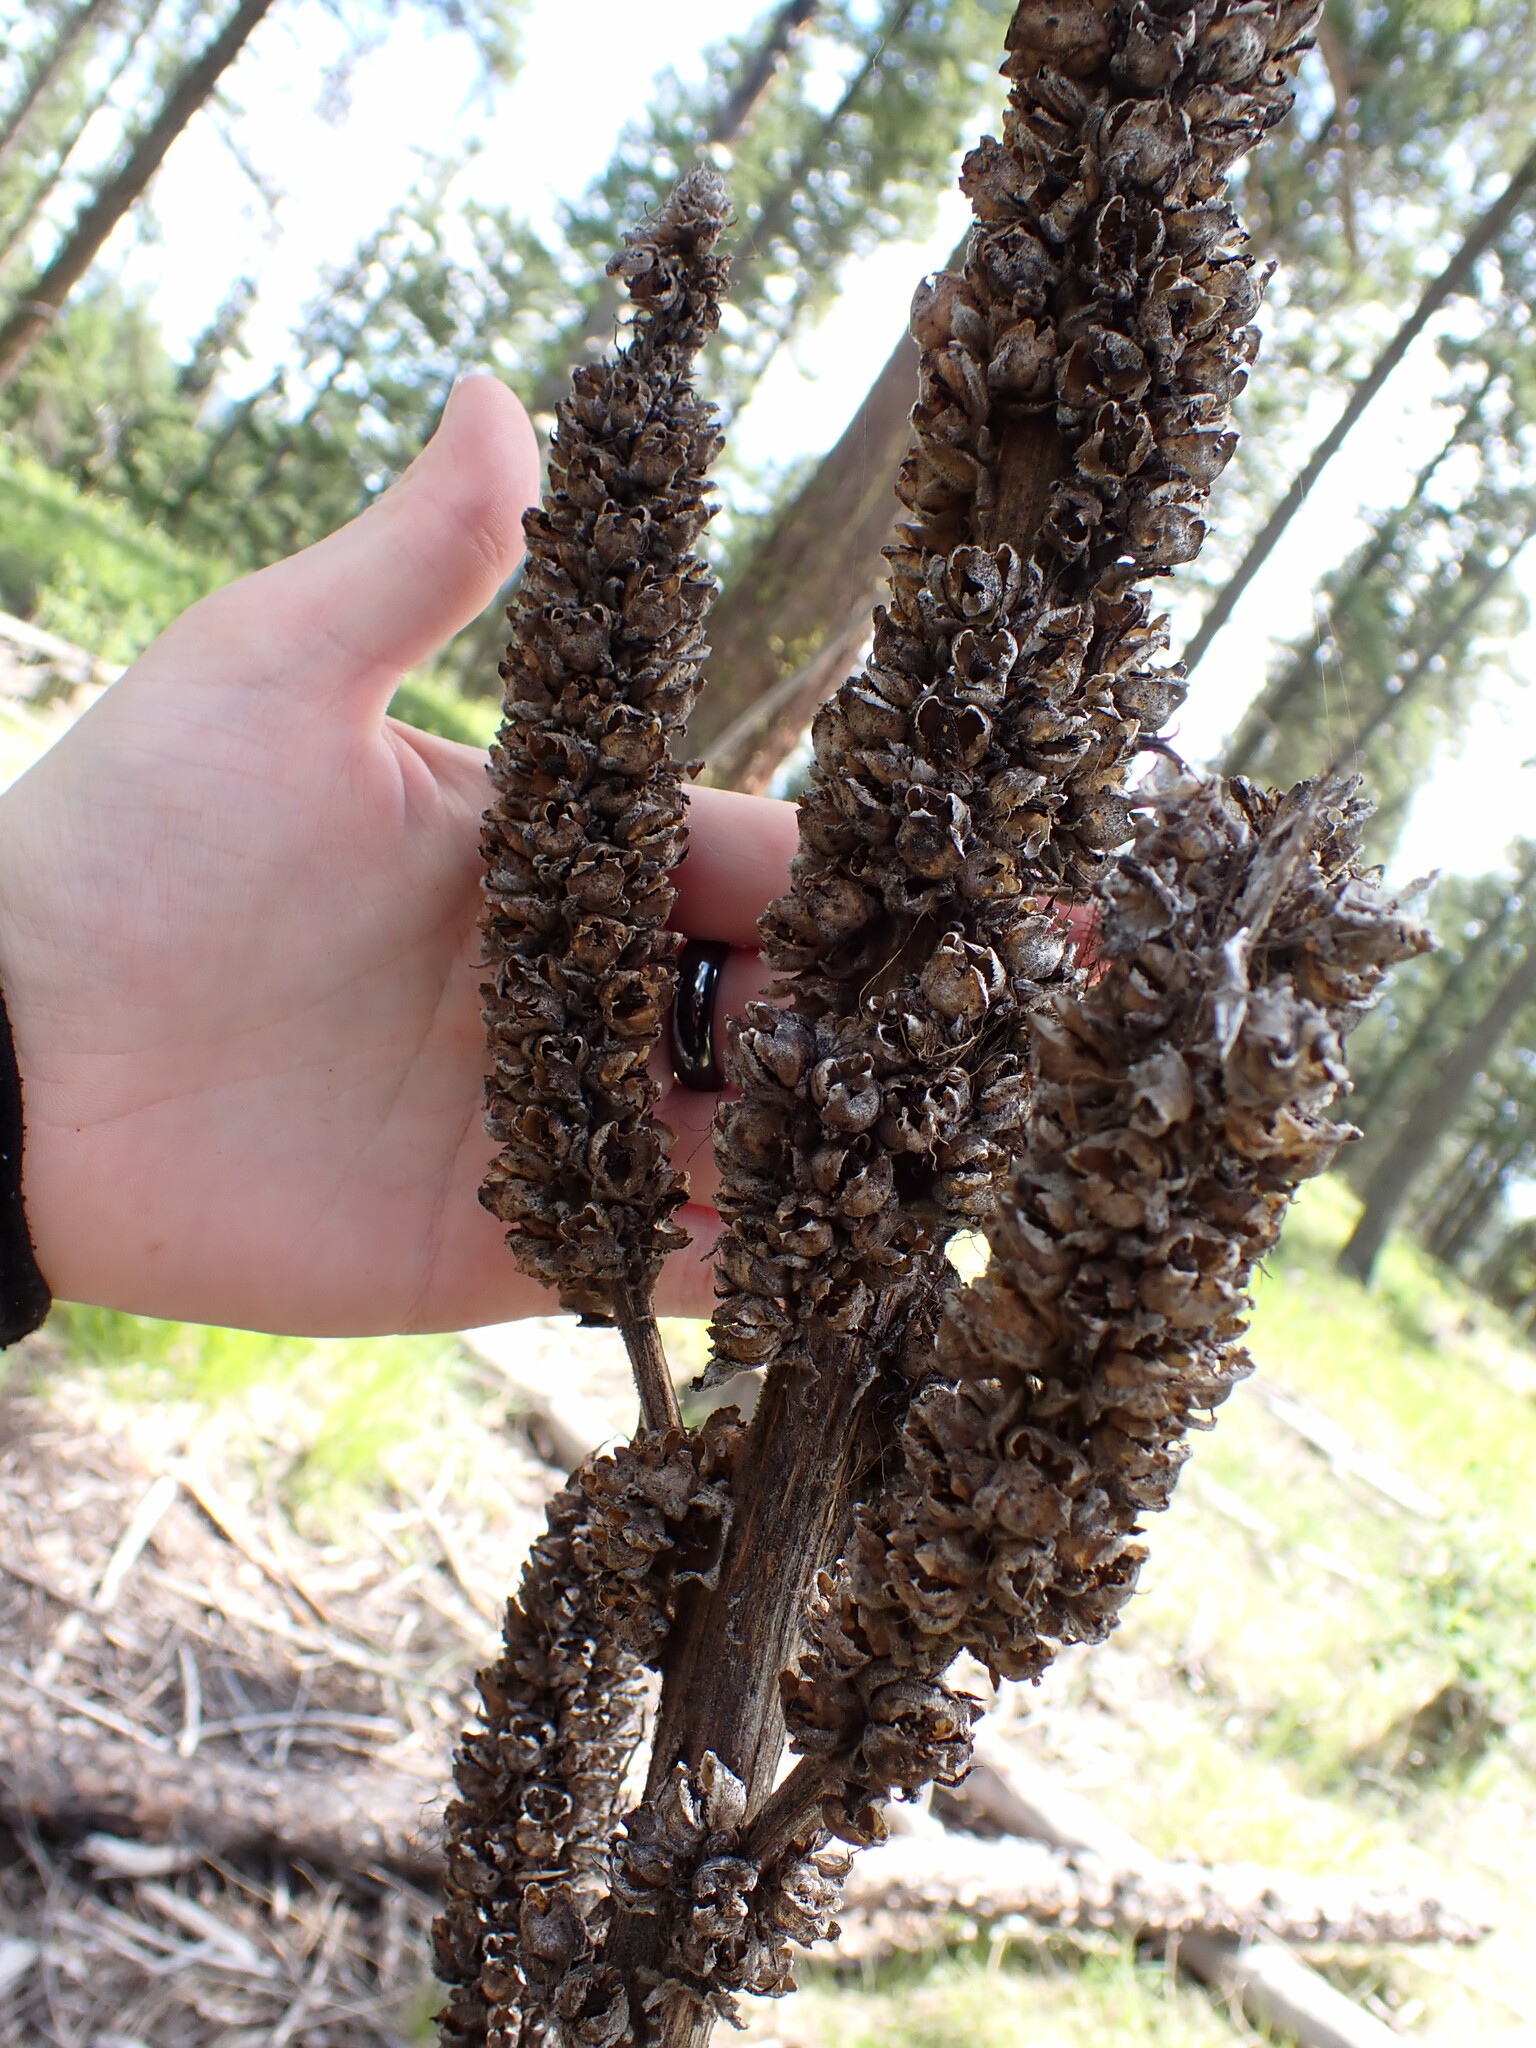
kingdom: Plantae
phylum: Tracheophyta
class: Magnoliopsida
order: Lamiales
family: Scrophulariaceae
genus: Verbascum
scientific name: Verbascum thapsus
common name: Common mullein
